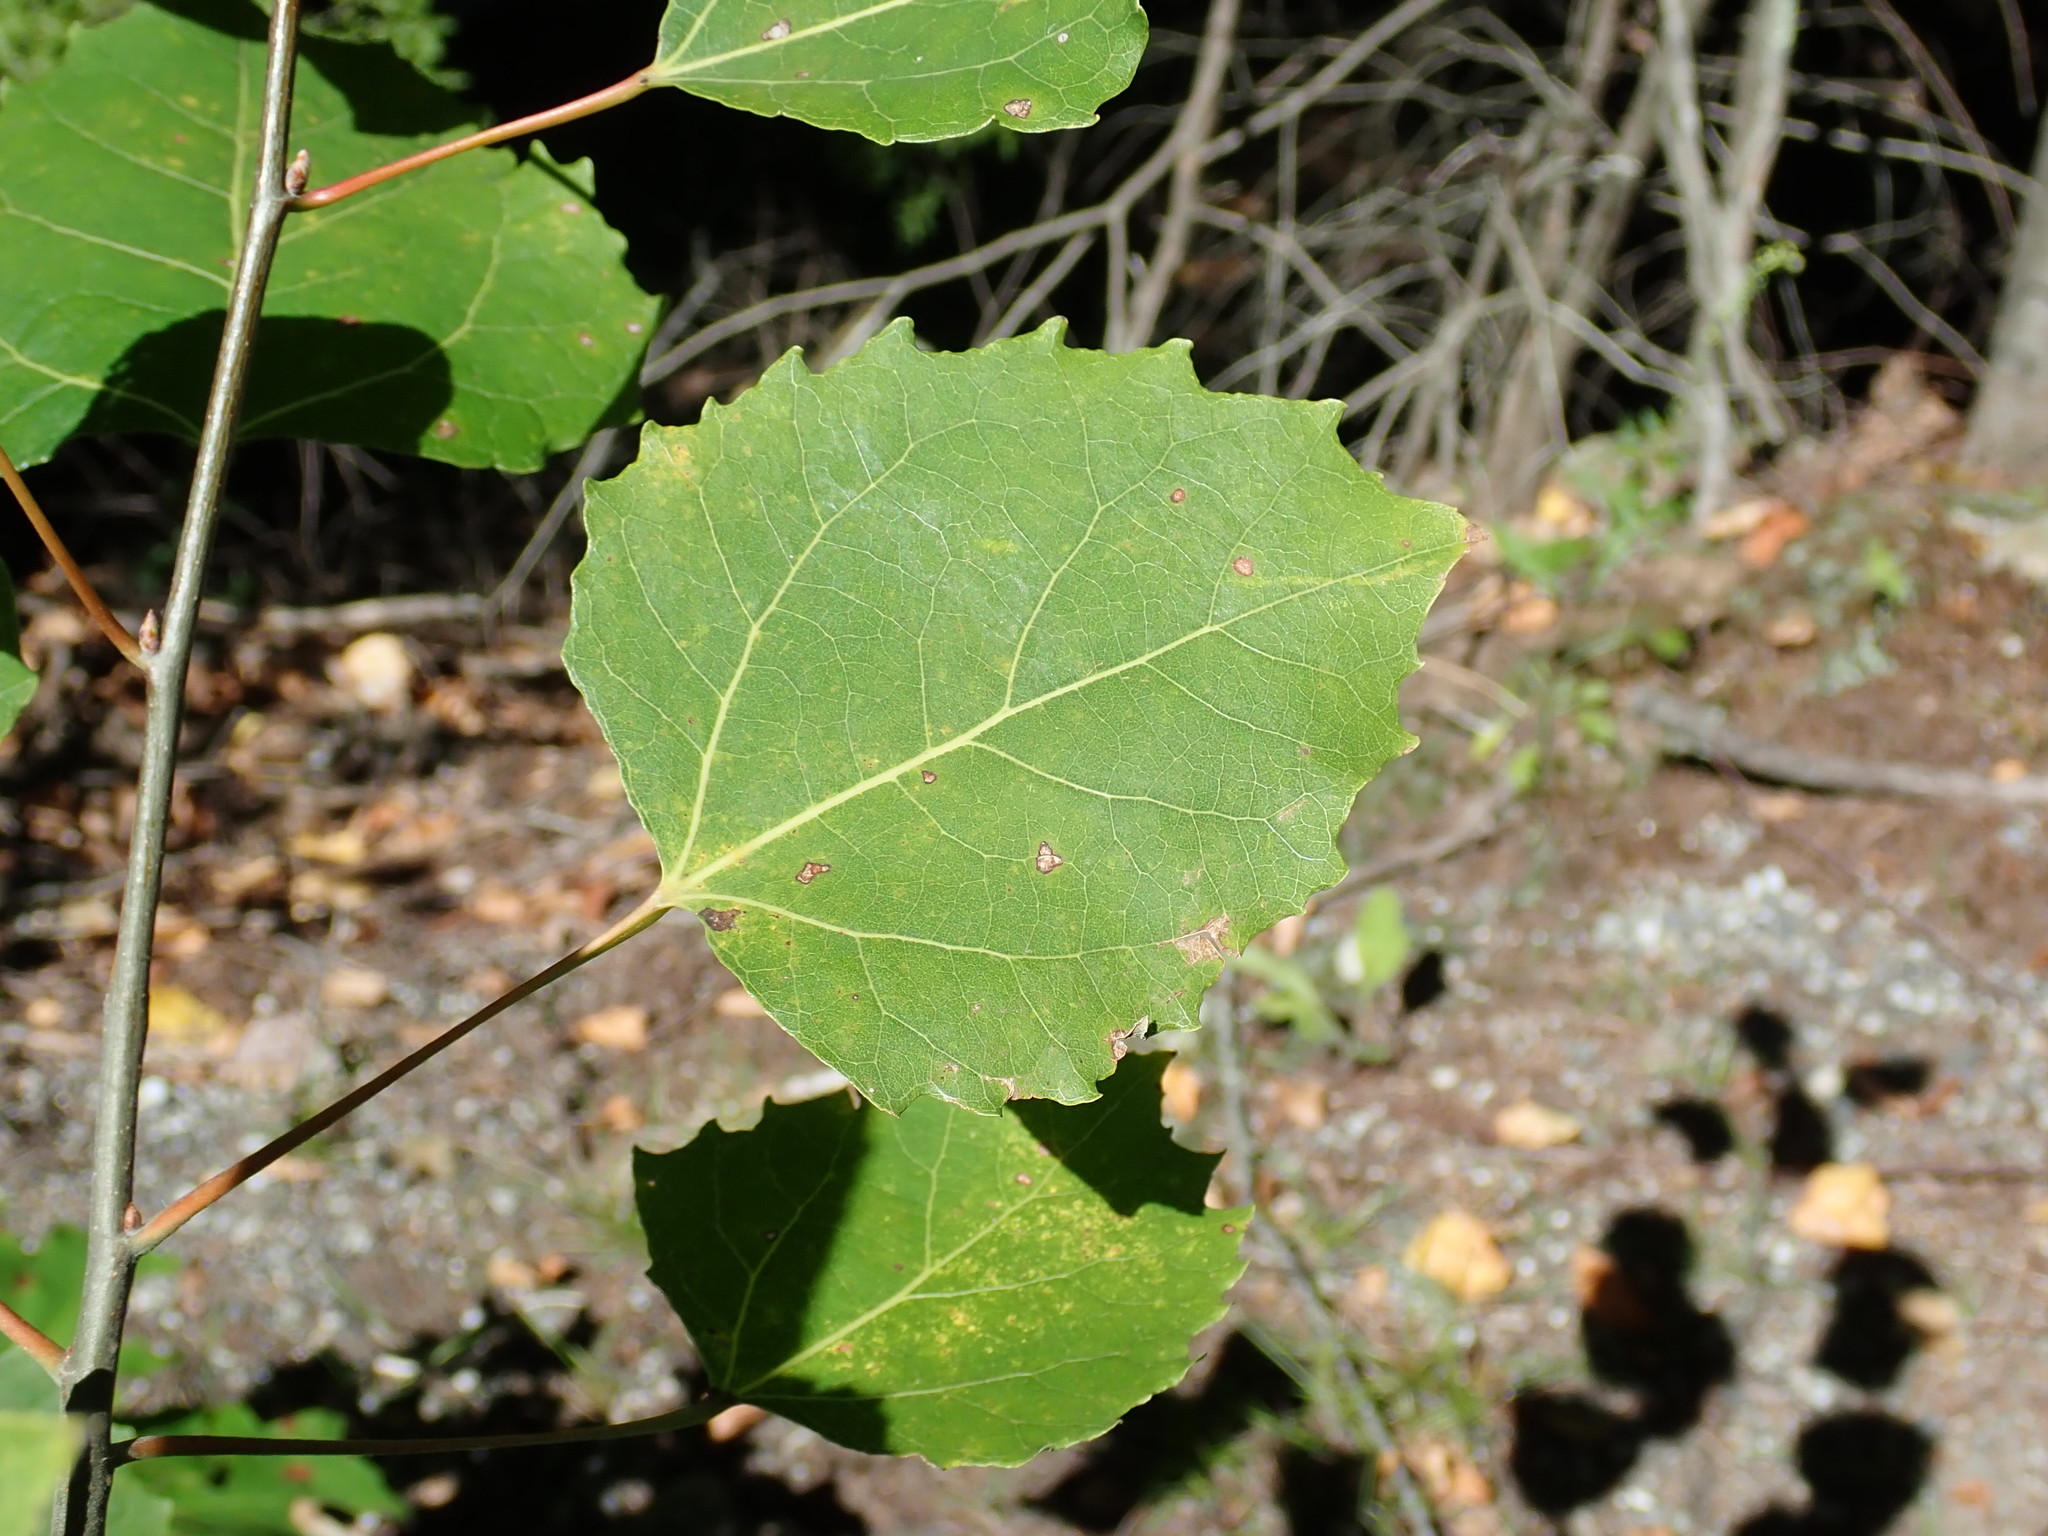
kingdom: Plantae
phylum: Tracheophyta
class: Magnoliopsida
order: Malpighiales
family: Salicaceae
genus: Populus
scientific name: Populus grandidentata
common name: Bigtooth aspen
